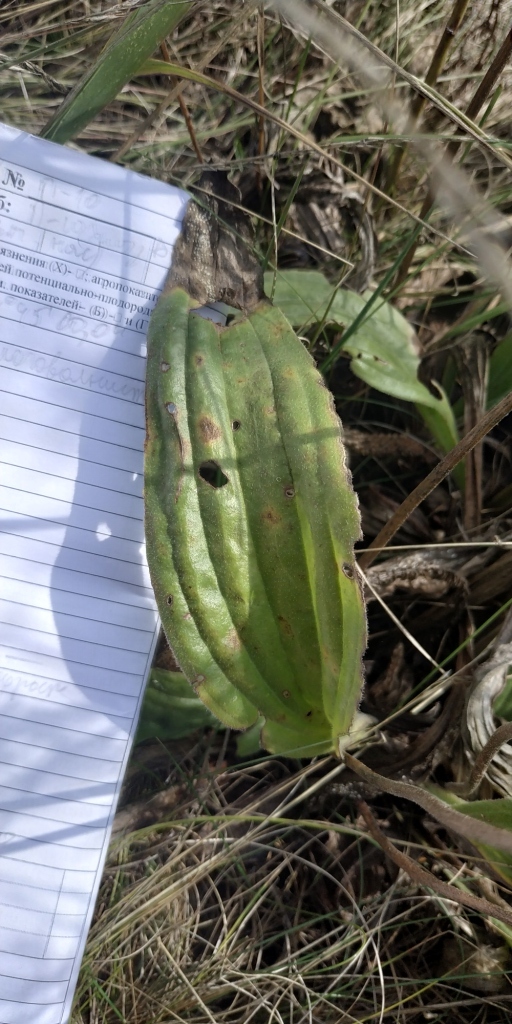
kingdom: Plantae
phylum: Tracheophyta
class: Magnoliopsida
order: Lamiales
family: Plantaginaceae
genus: Plantago
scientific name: Plantago urvillei
